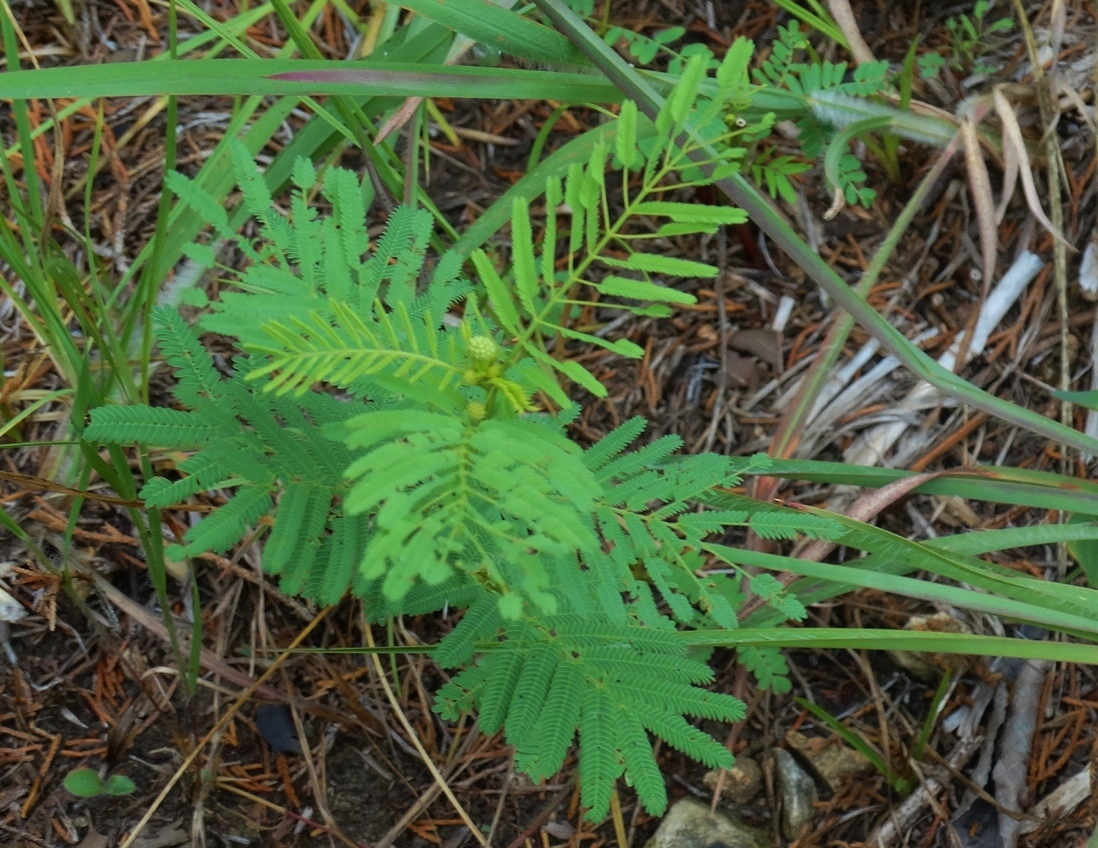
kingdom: Plantae
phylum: Tracheophyta
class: Magnoliopsida
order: Fabales
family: Fabaceae
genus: Desmanthus
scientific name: Desmanthus illinoensis
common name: Illinois bundle-flower
